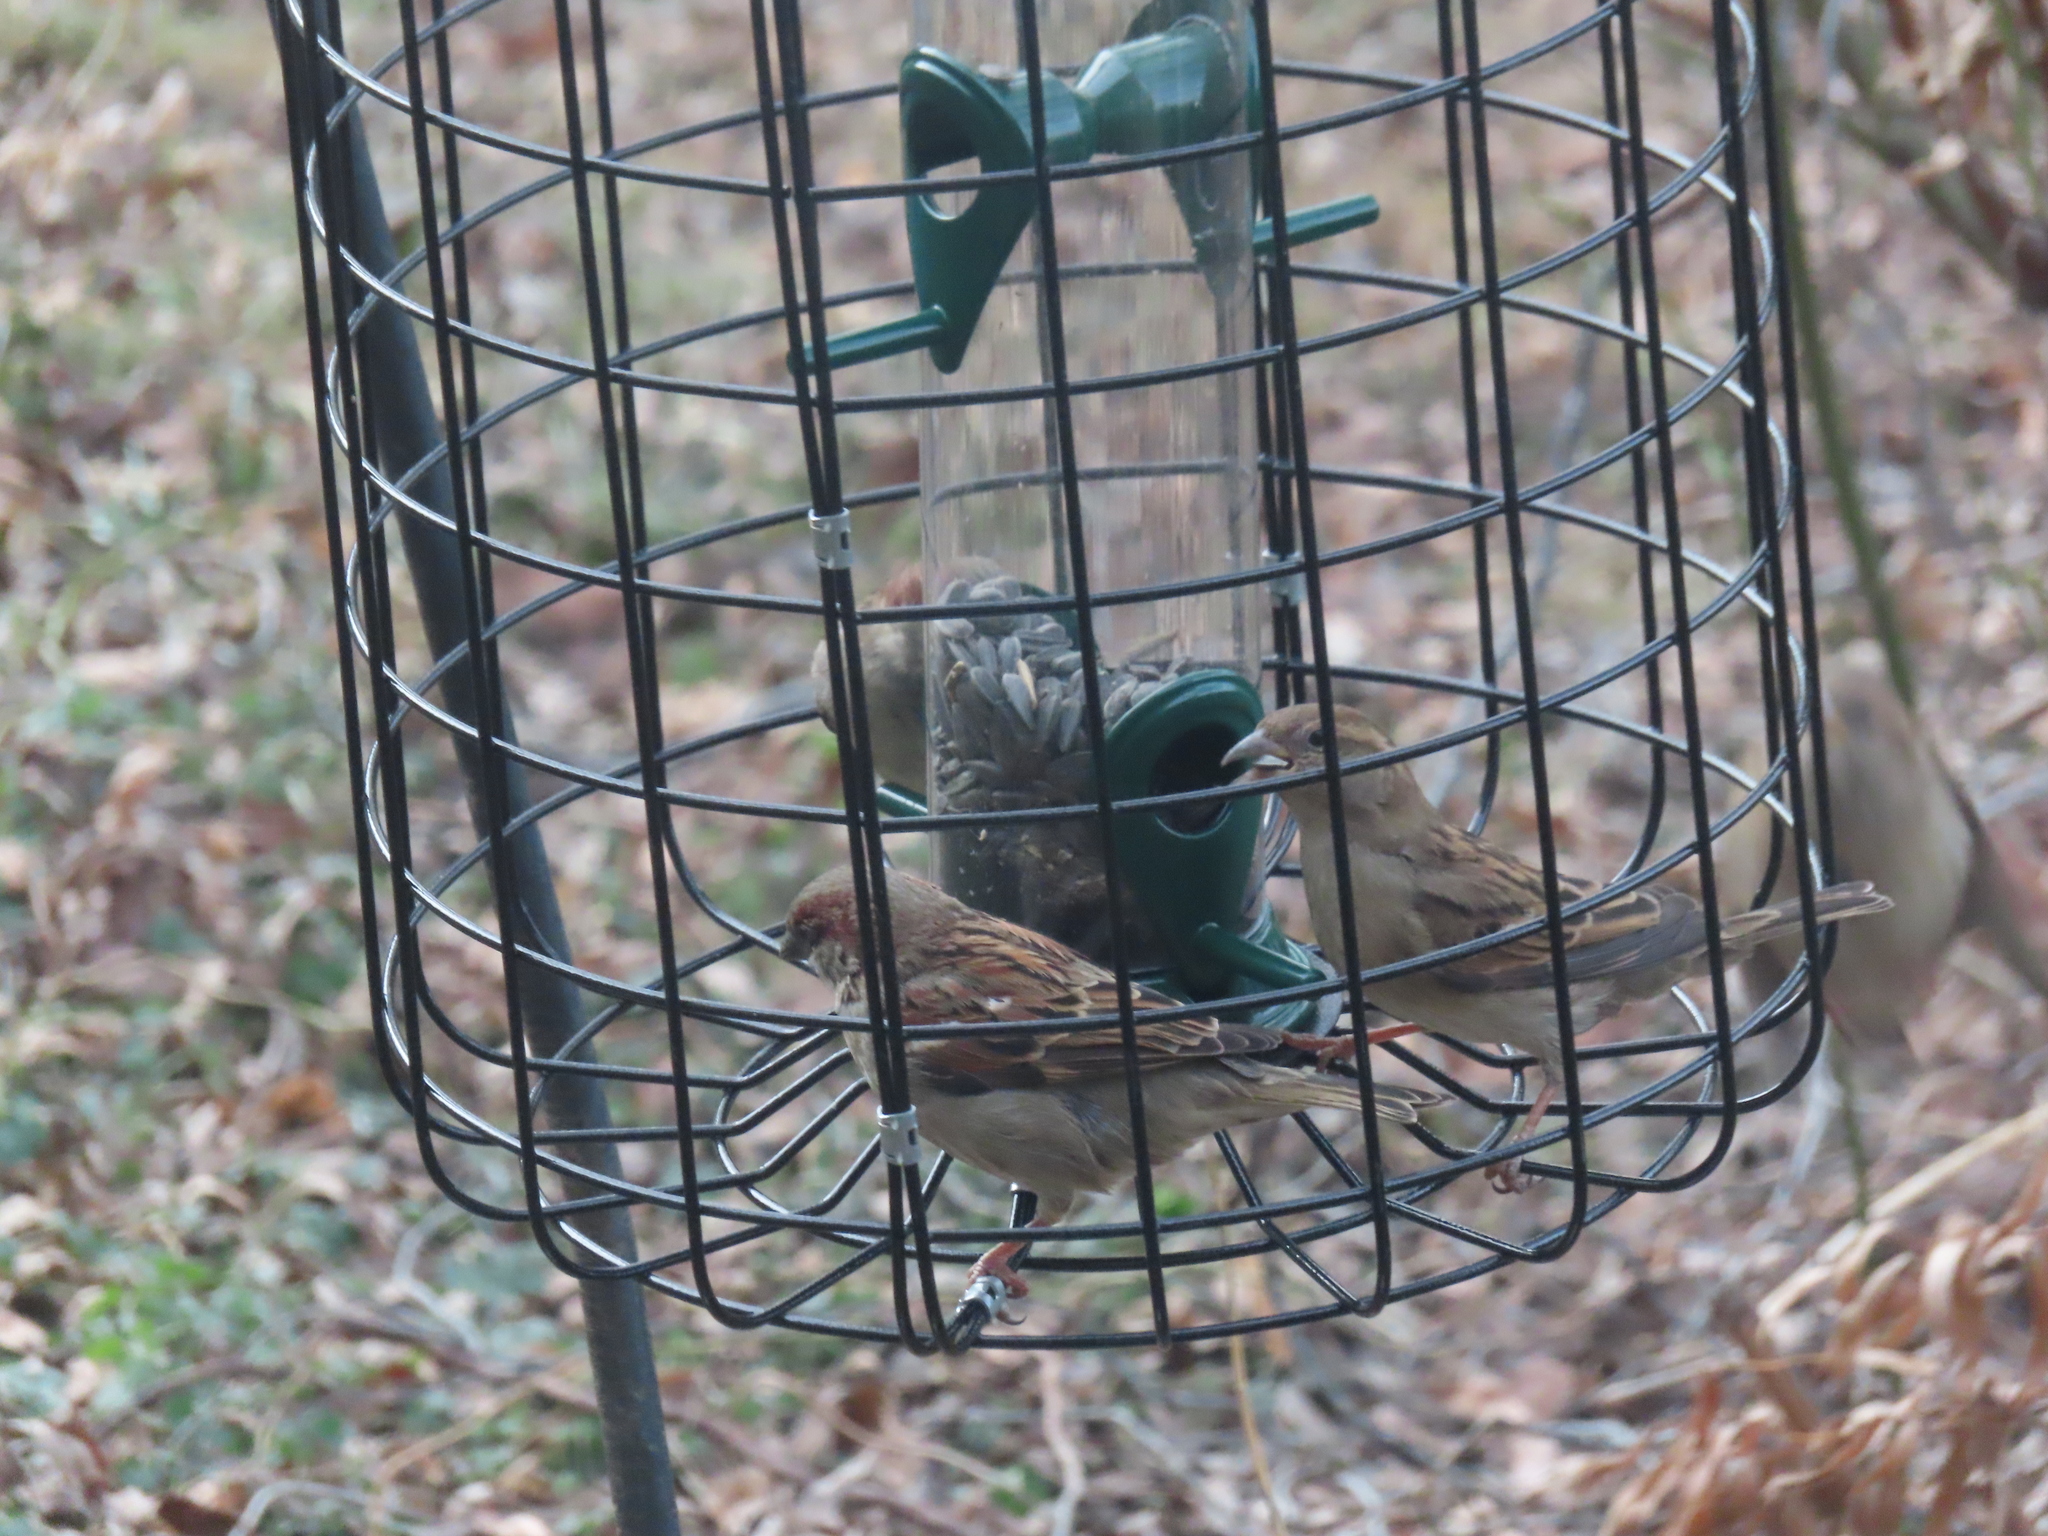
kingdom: Animalia
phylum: Chordata
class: Aves
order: Passeriformes
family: Passeridae
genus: Passer
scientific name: Passer domesticus
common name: House sparrow
